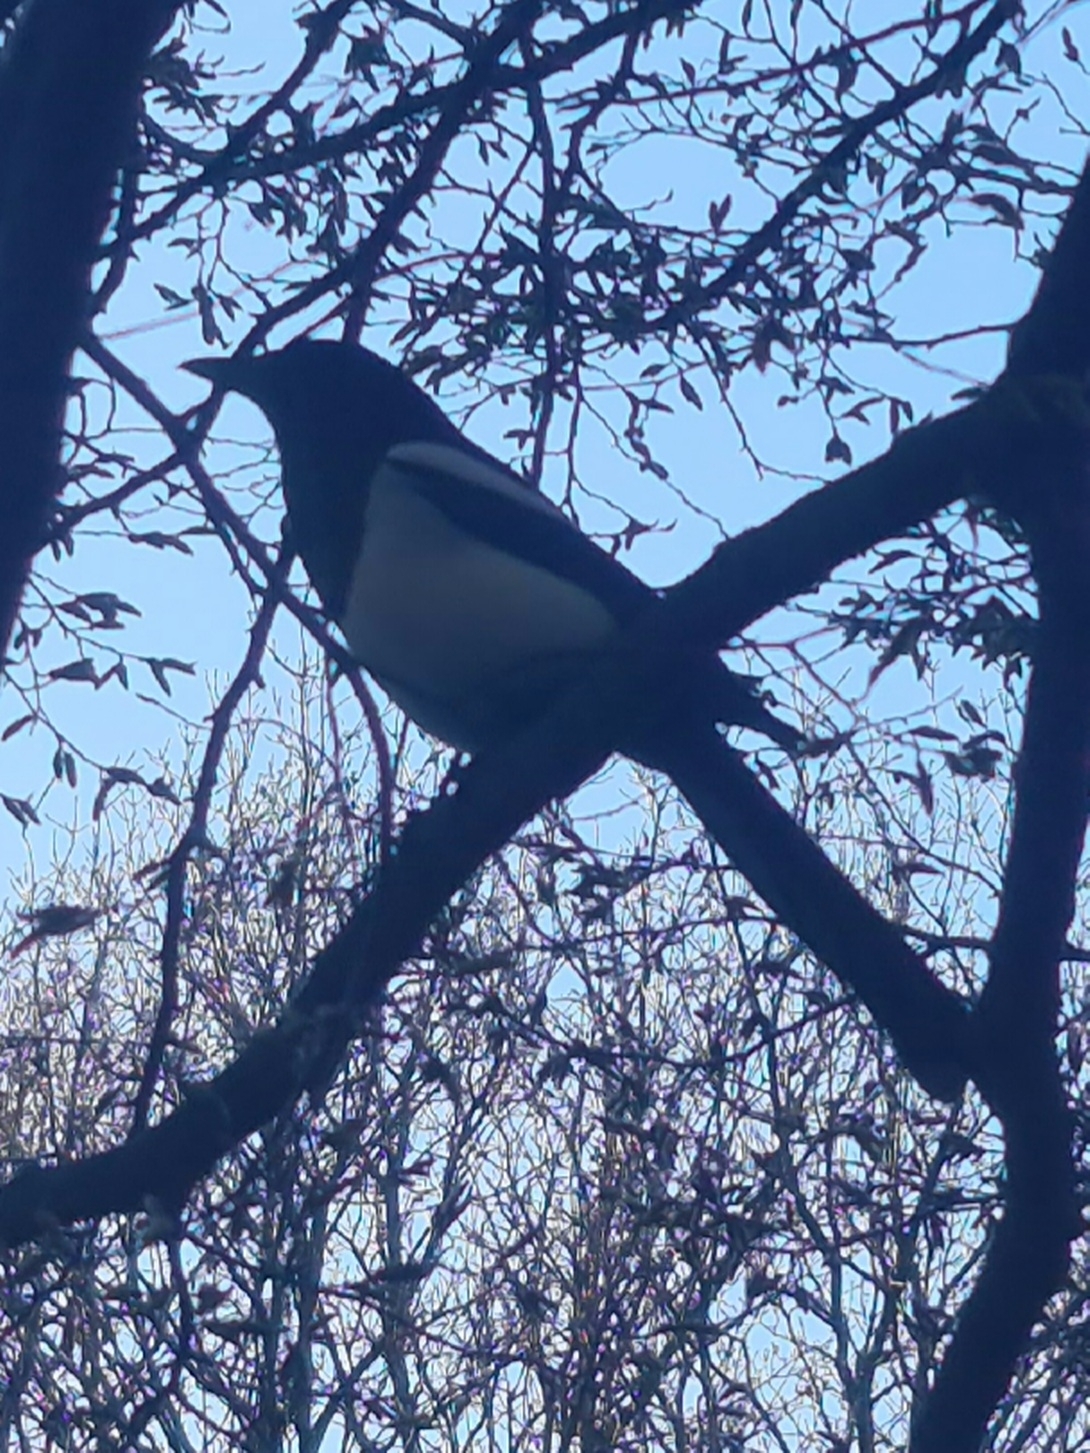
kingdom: Animalia
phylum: Chordata
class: Aves
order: Passeriformes
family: Corvidae
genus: Pica
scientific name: Pica pica
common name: Eurasian magpie
